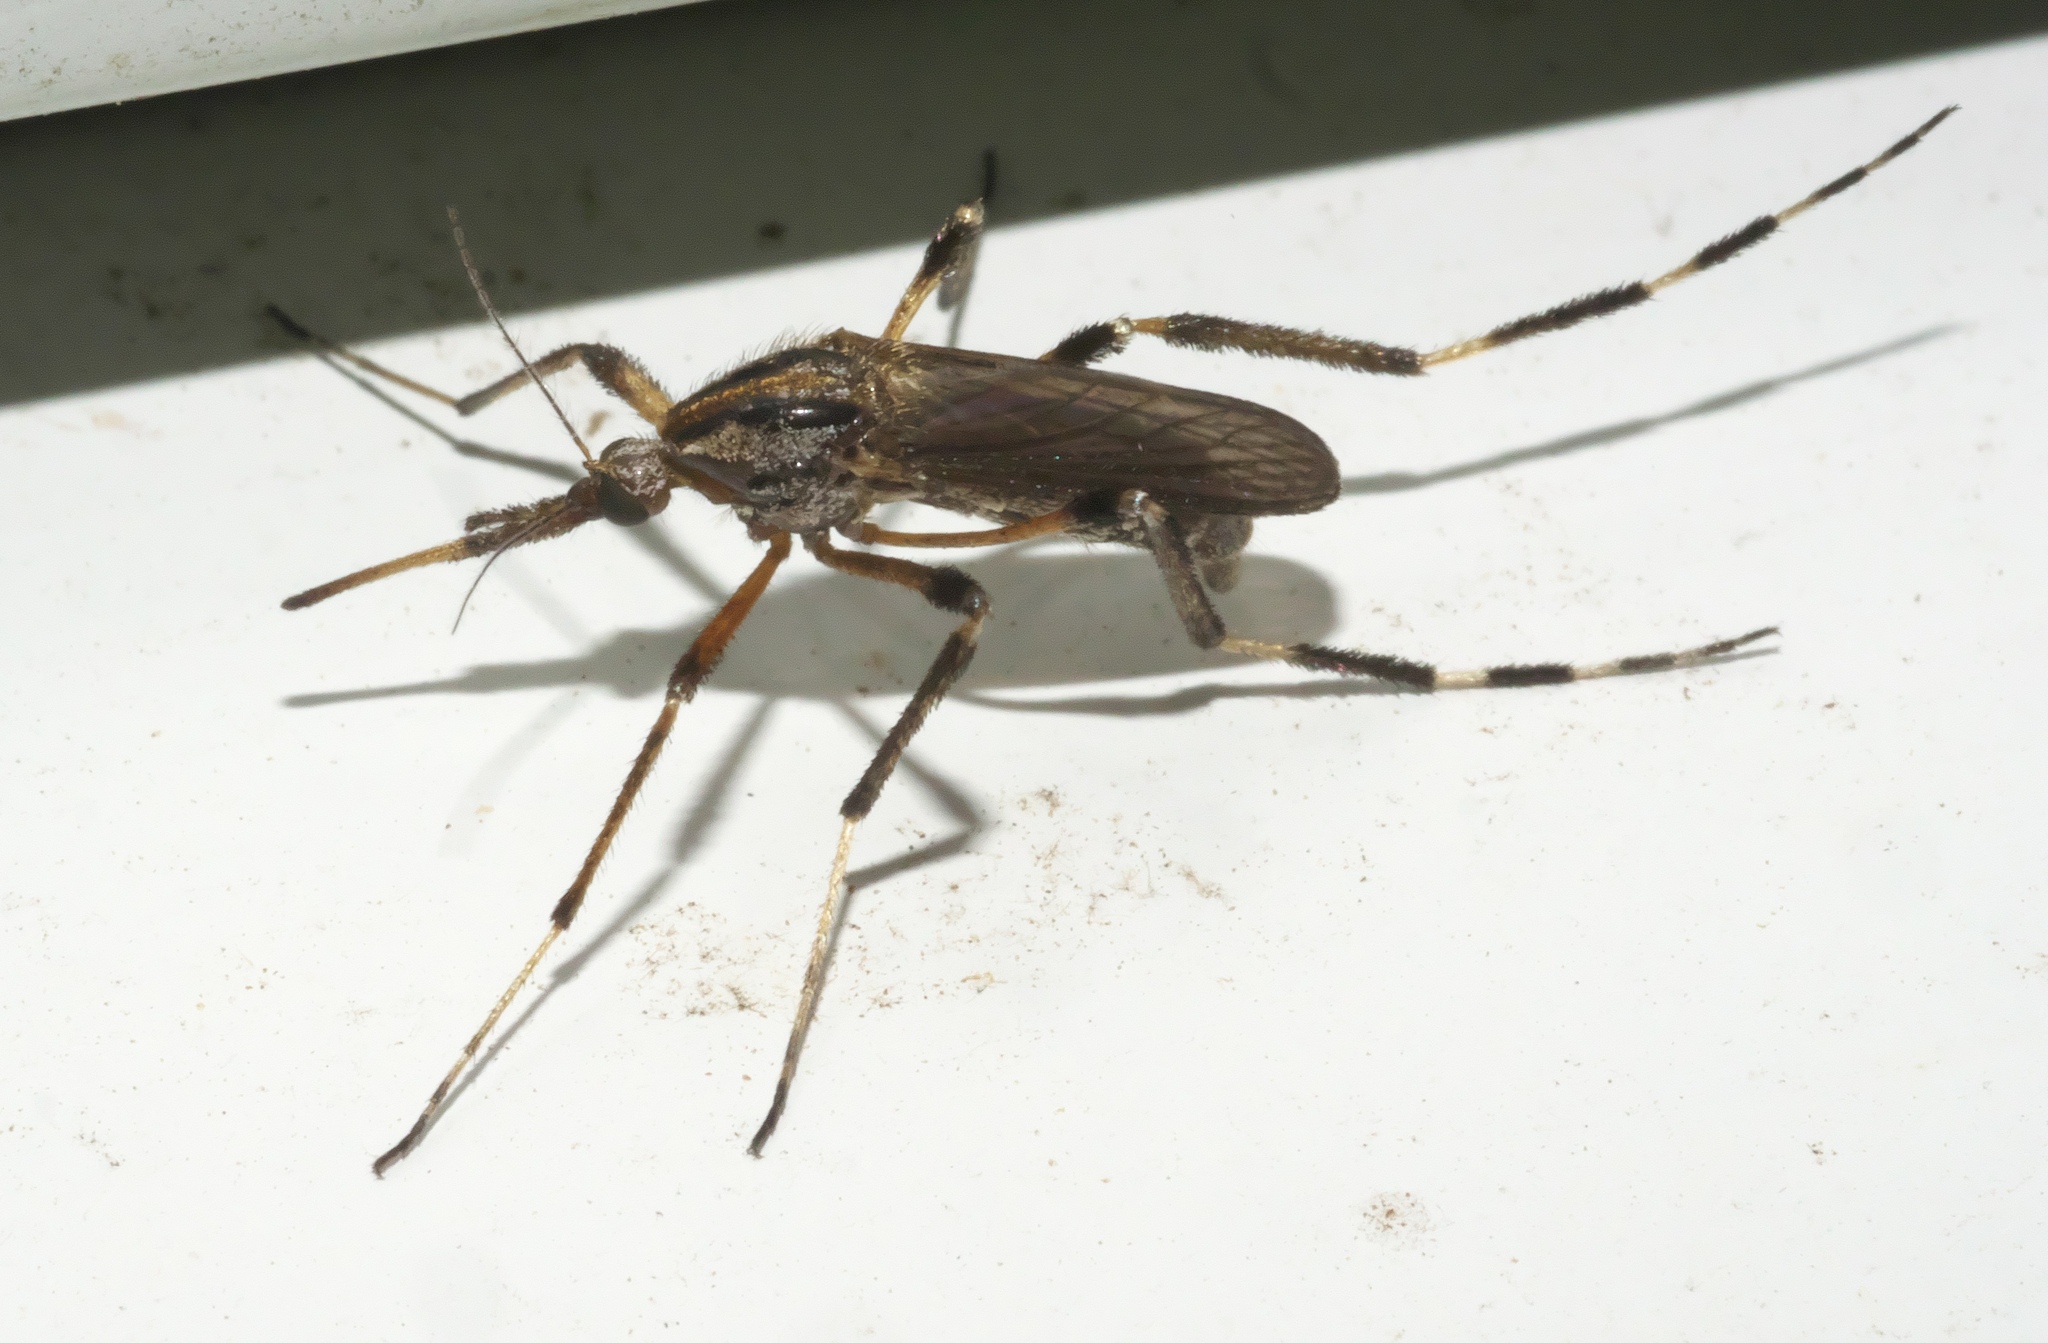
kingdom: Animalia
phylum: Arthropoda
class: Insecta
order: Diptera
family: Culicidae
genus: Psorophora
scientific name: Psorophora ciliata
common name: Gallinipper
